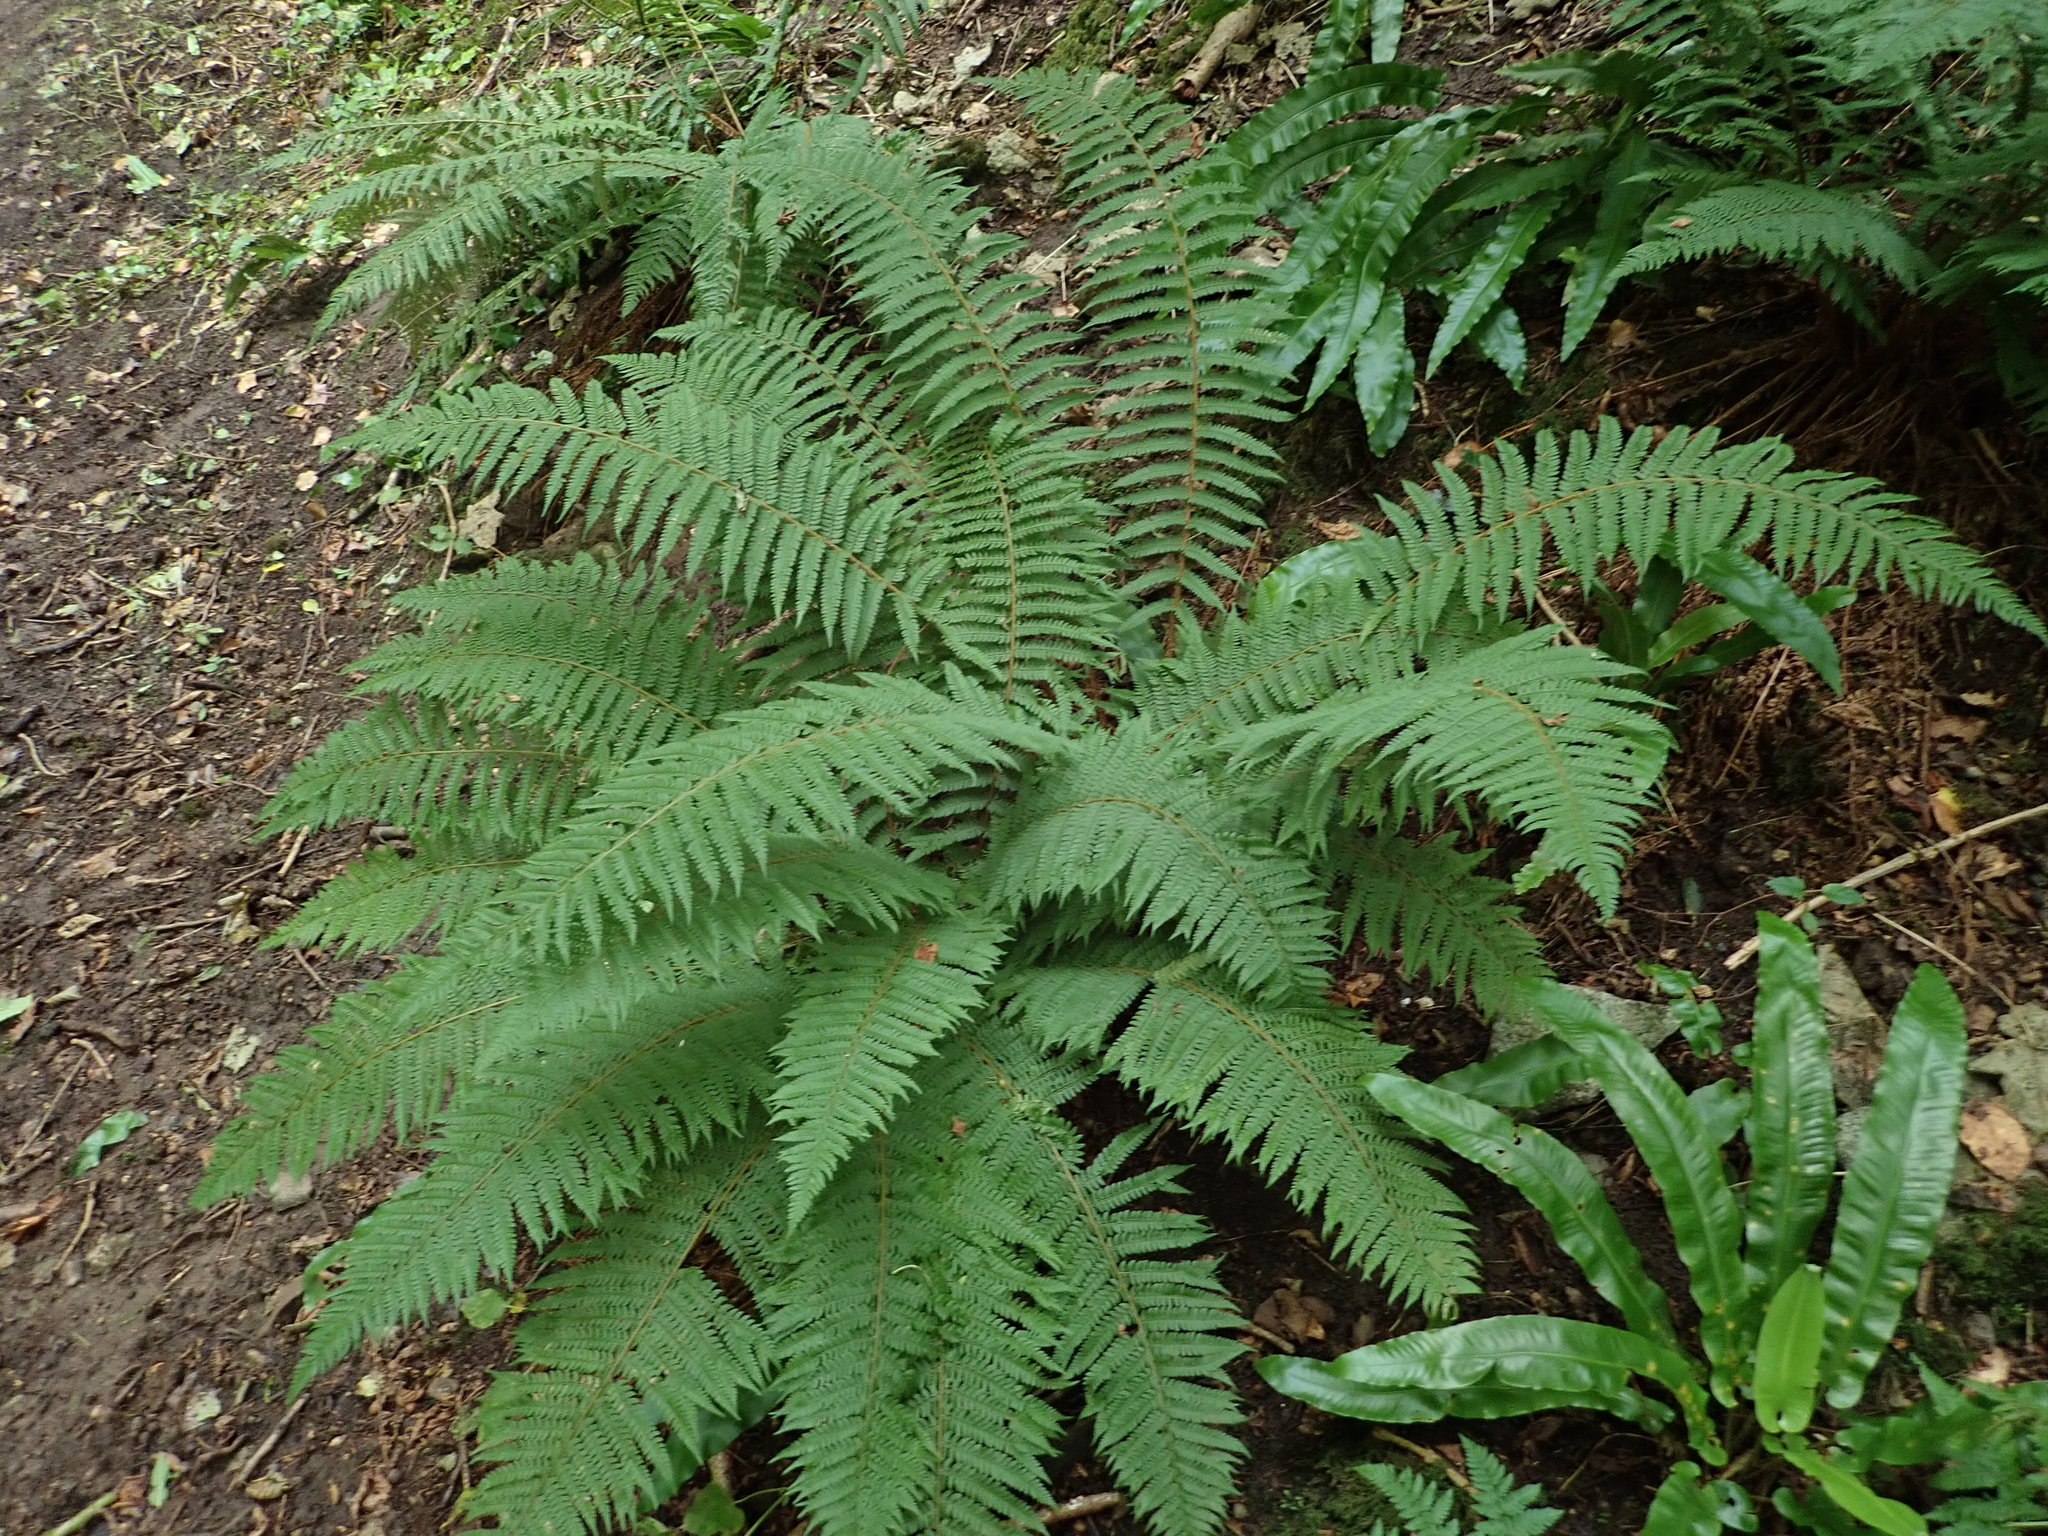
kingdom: Plantae
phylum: Tracheophyta
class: Polypodiopsida
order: Polypodiales
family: Dryopteridaceae
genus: Polystichum
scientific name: Polystichum setiferum
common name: Soft shield-fern
